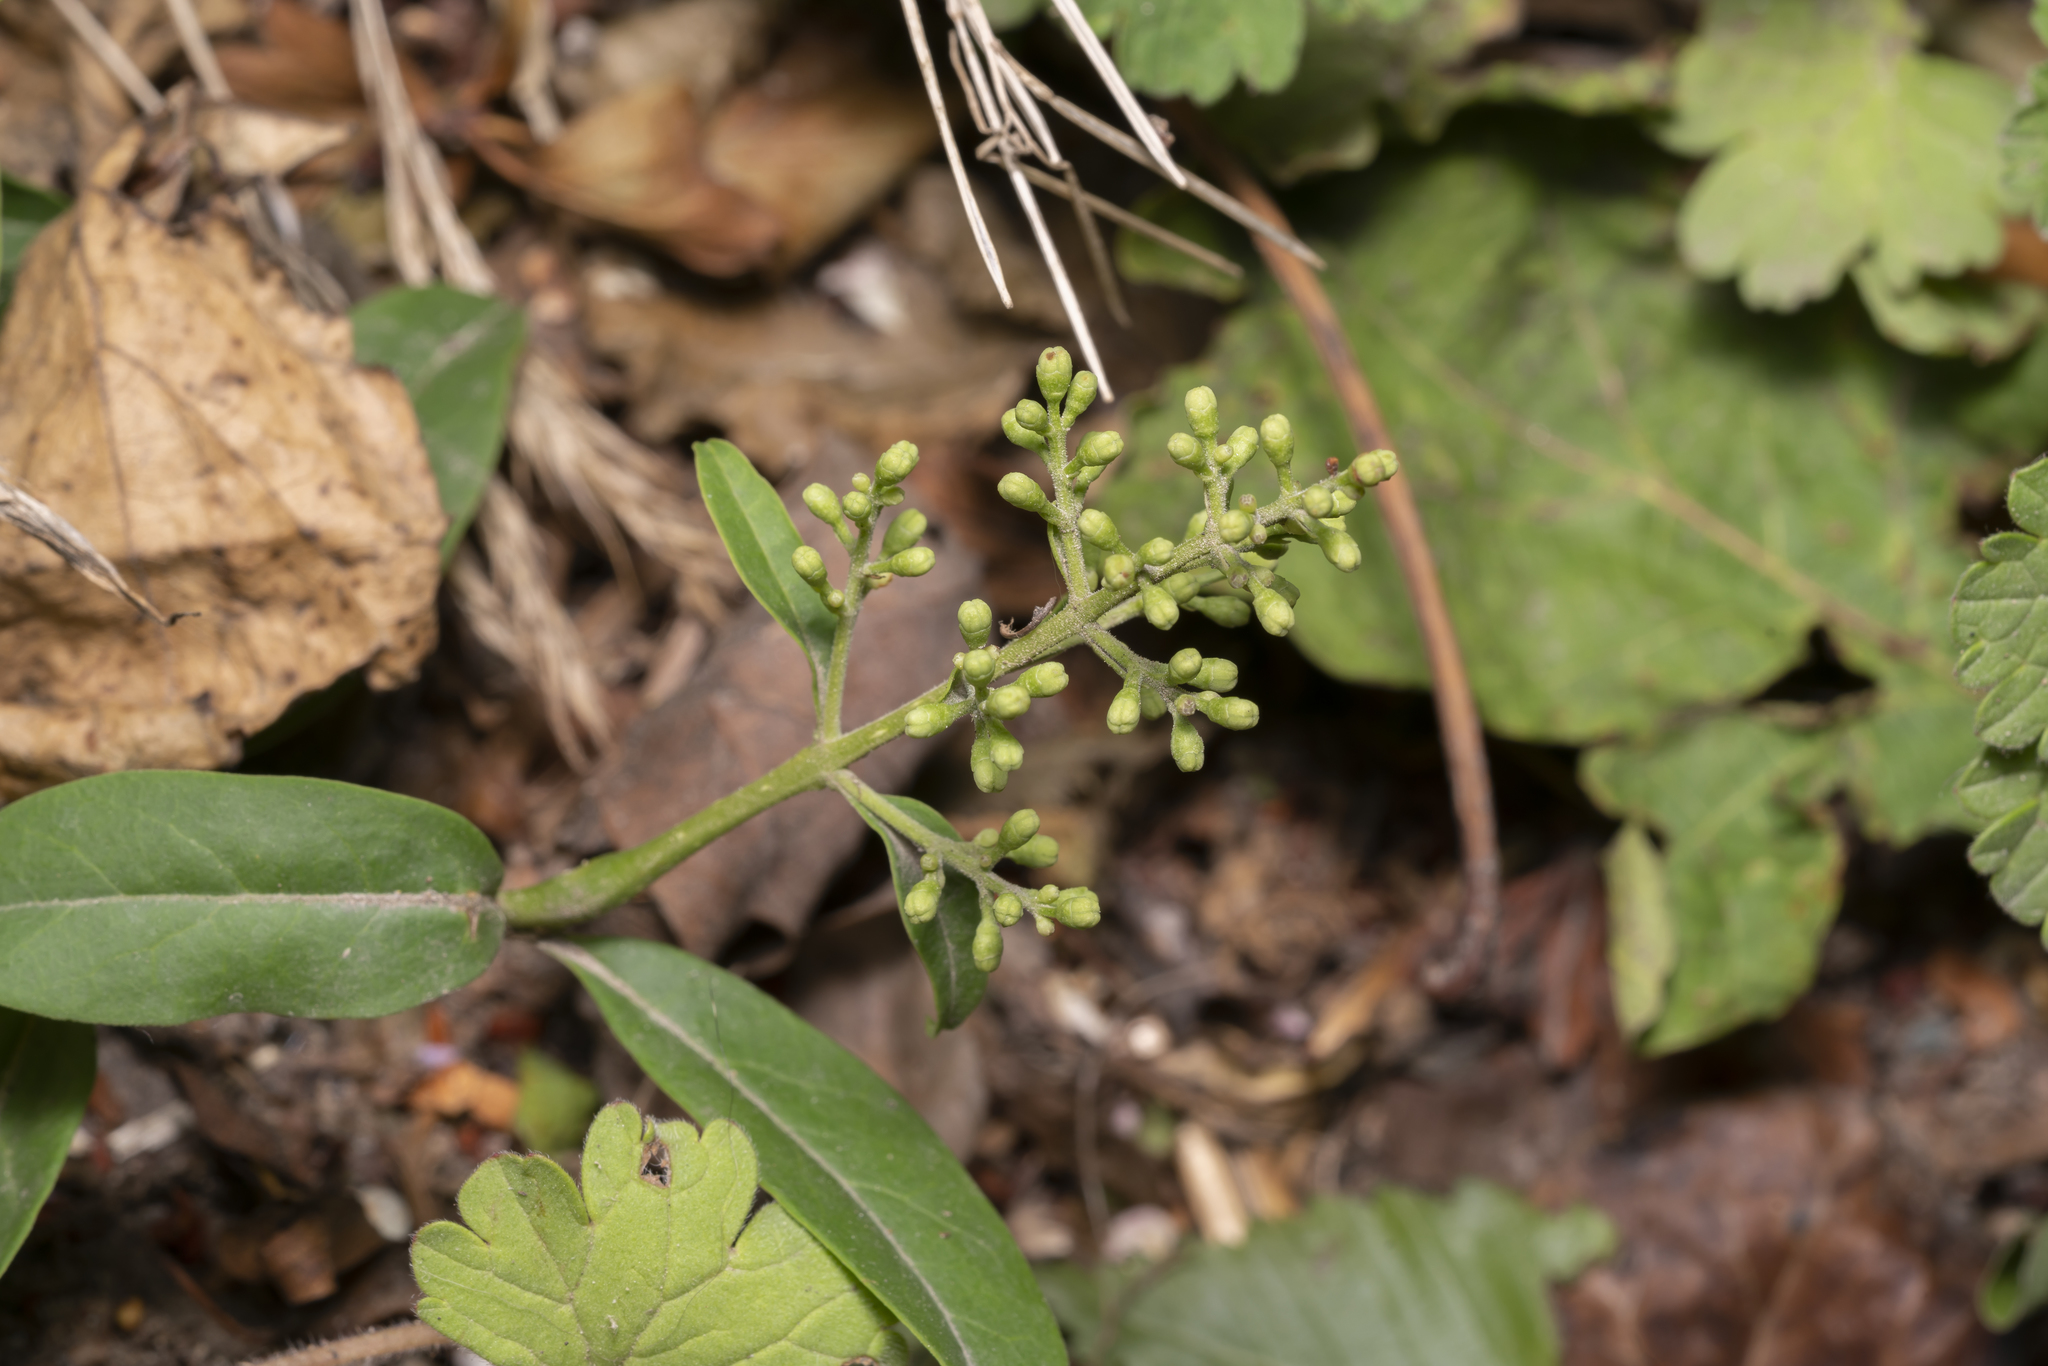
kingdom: Plantae
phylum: Tracheophyta
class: Magnoliopsida
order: Lamiales
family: Oleaceae
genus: Ligustrum
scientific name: Ligustrum vulgare
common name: Wild privet
